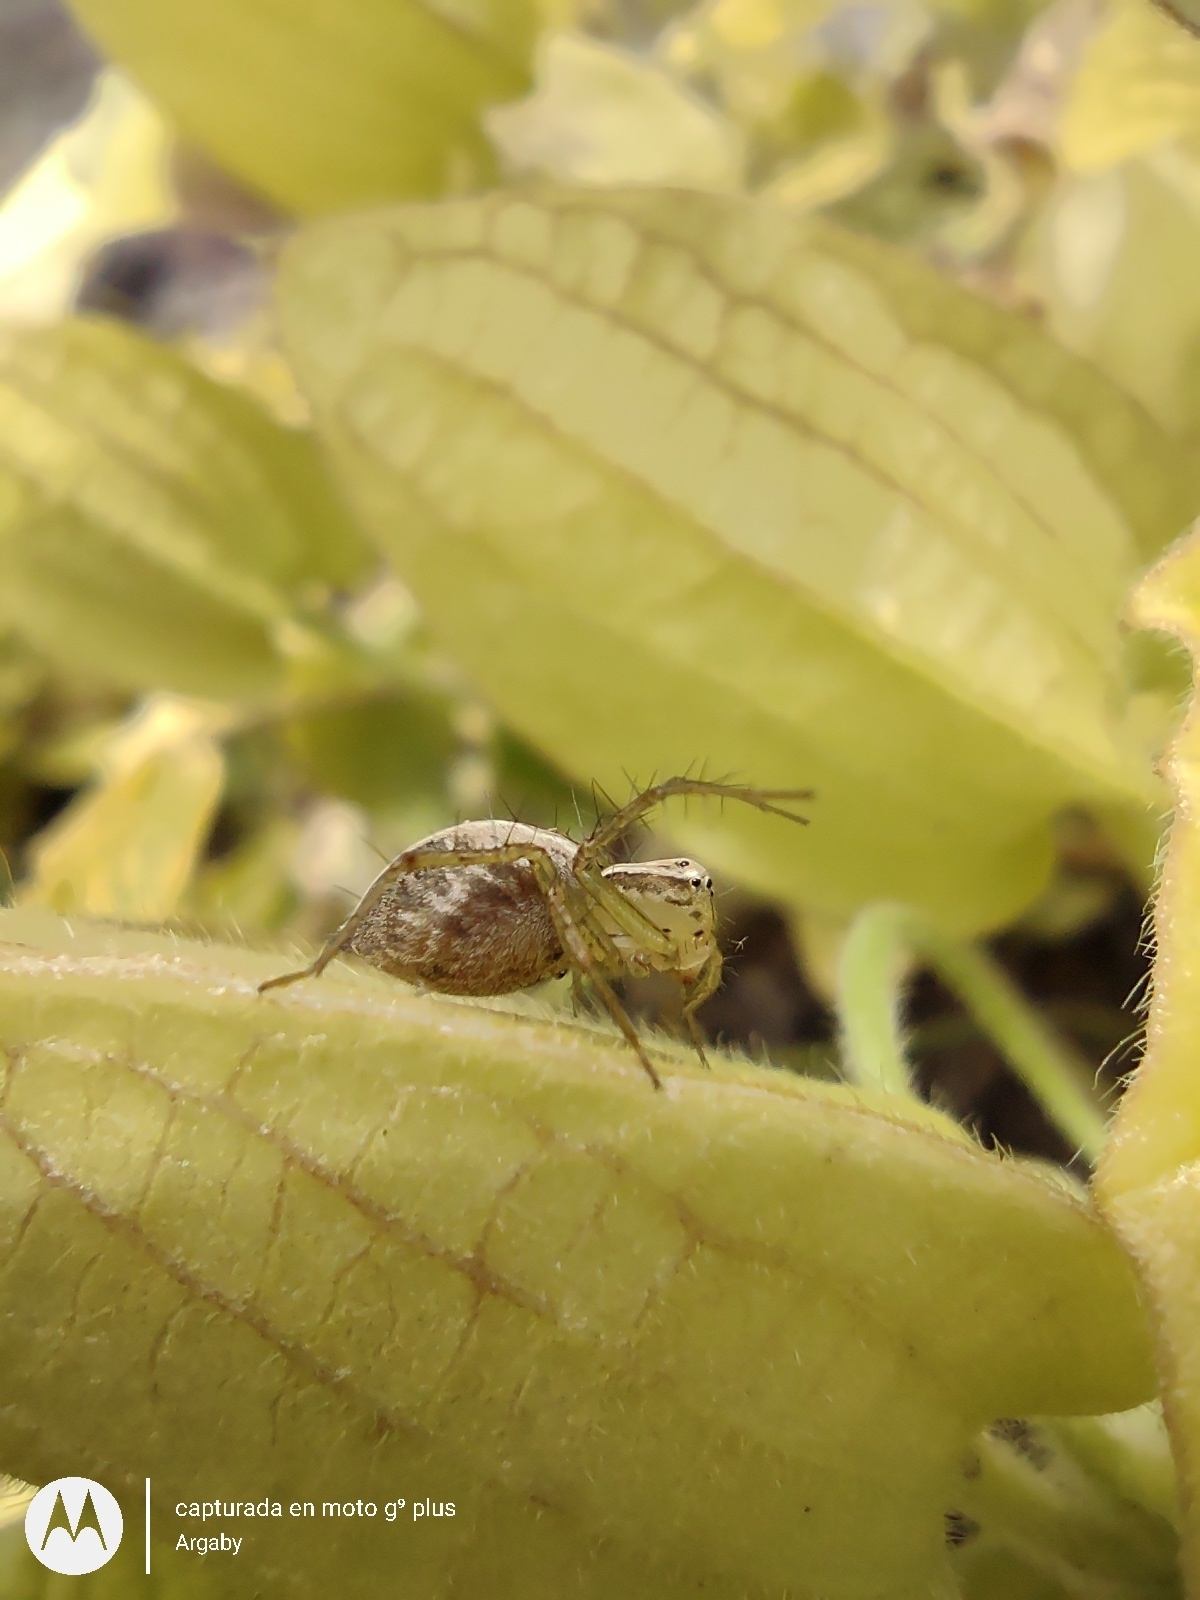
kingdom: Animalia
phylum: Arthropoda
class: Arachnida
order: Araneae
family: Oxyopidae
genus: Oxyopes
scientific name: Oxyopes salticus
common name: Lynx spiders
